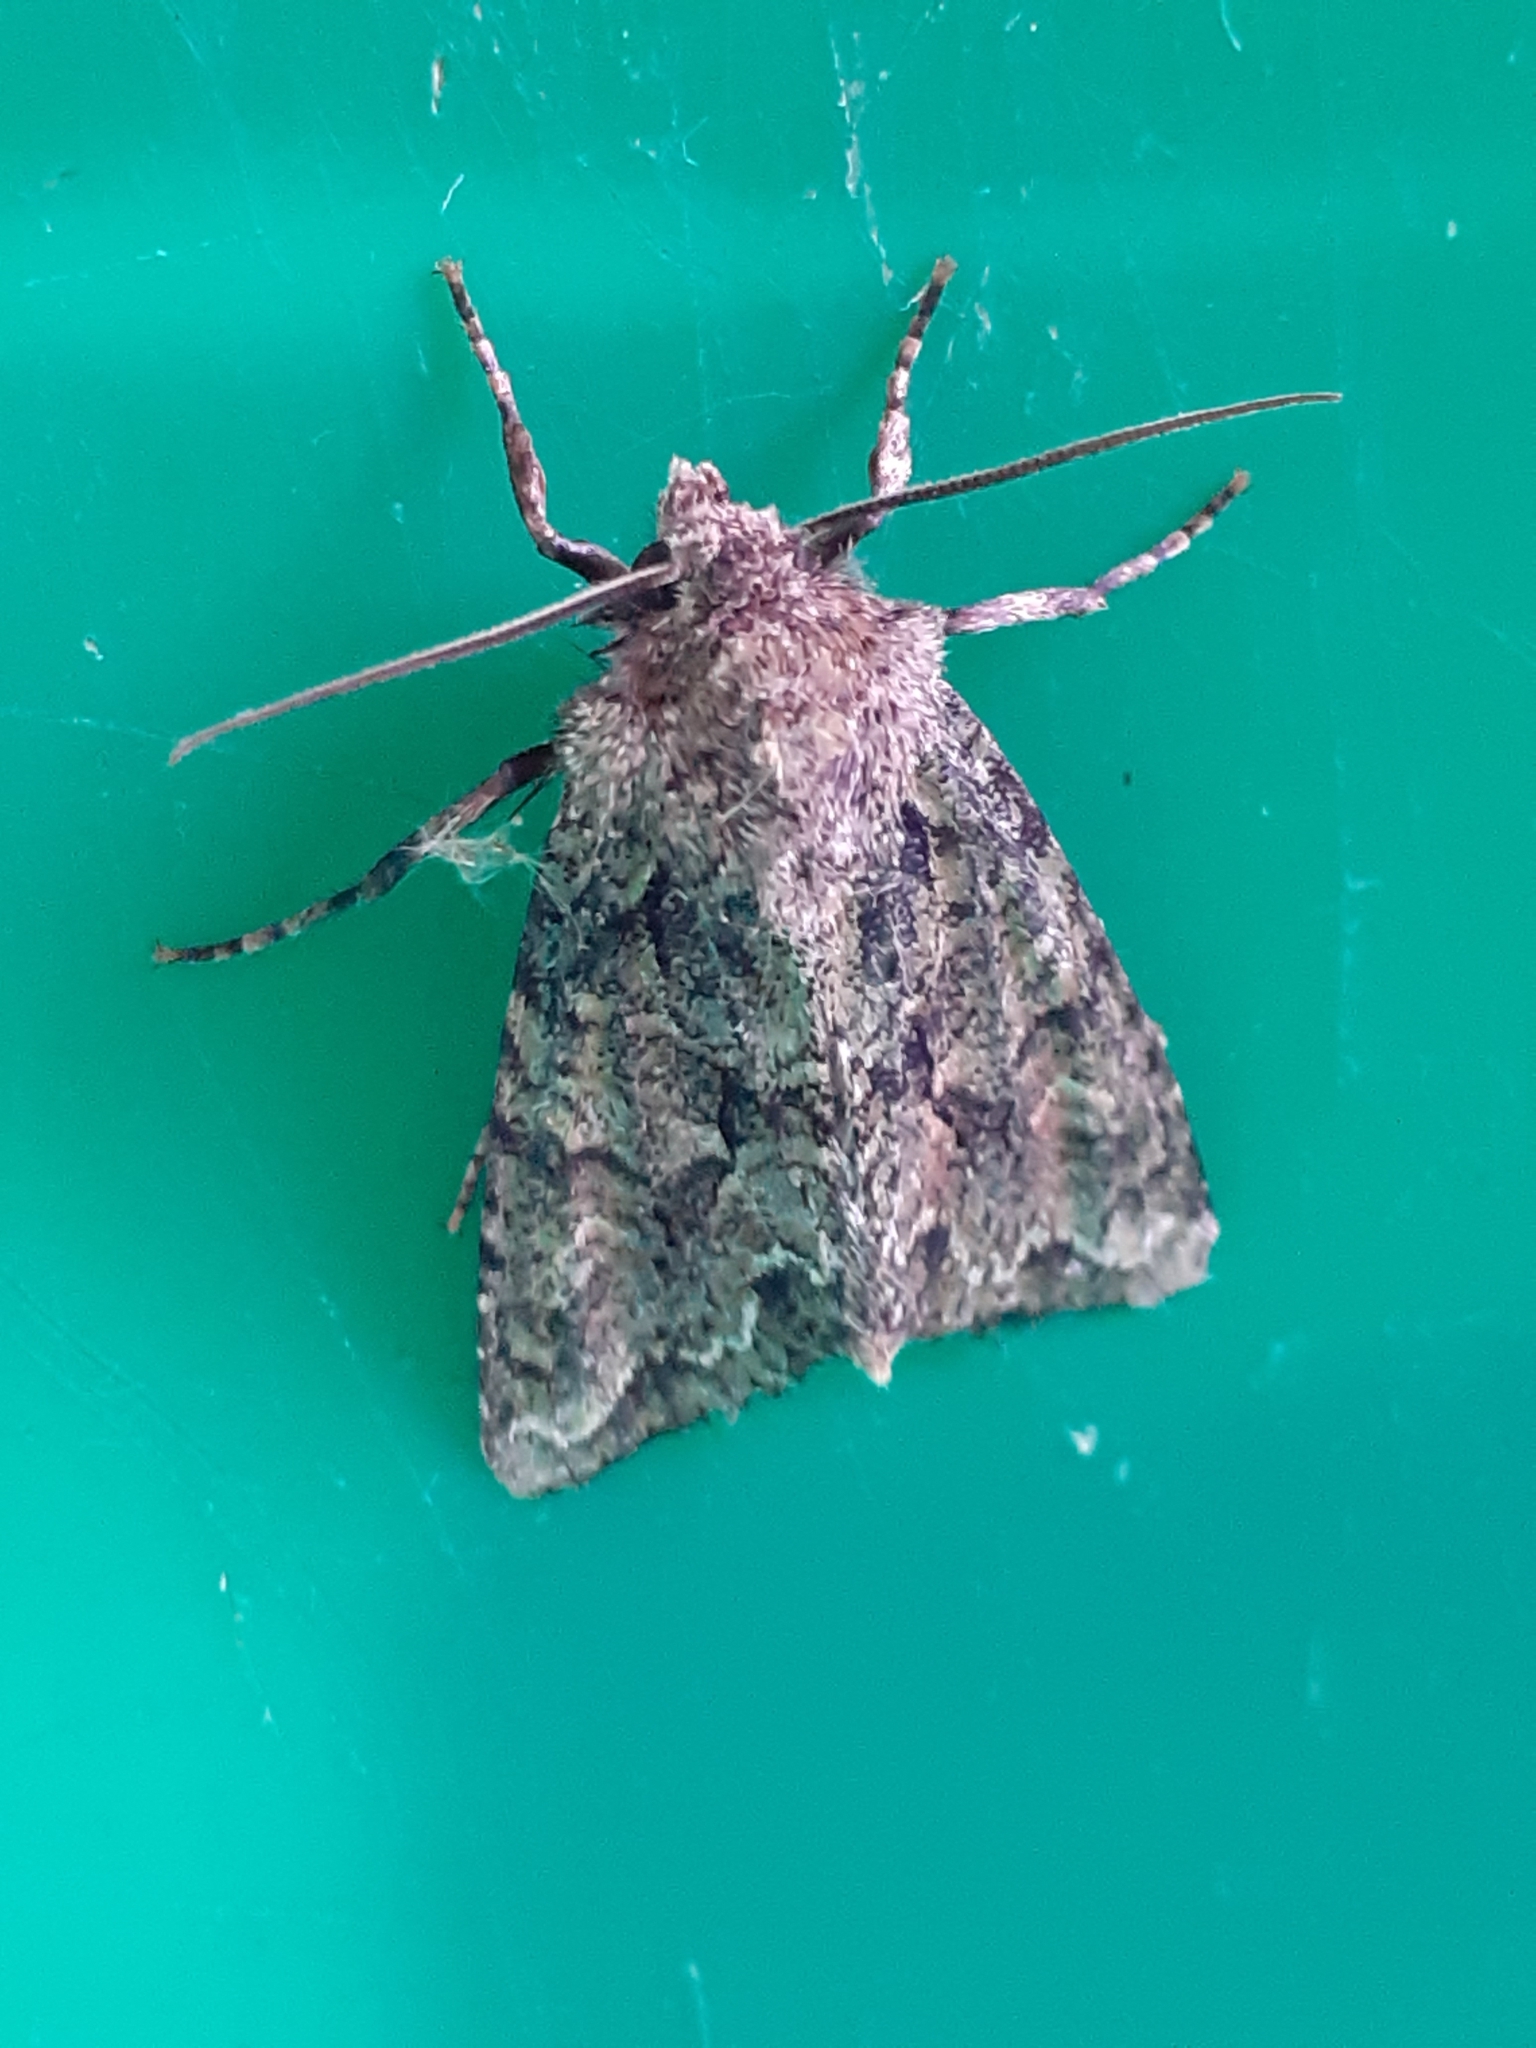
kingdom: Animalia
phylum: Arthropoda
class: Insecta
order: Lepidoptera
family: Noctuidae
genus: Dryobotodes
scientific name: Dryobotodes eremita
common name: Brindled green
